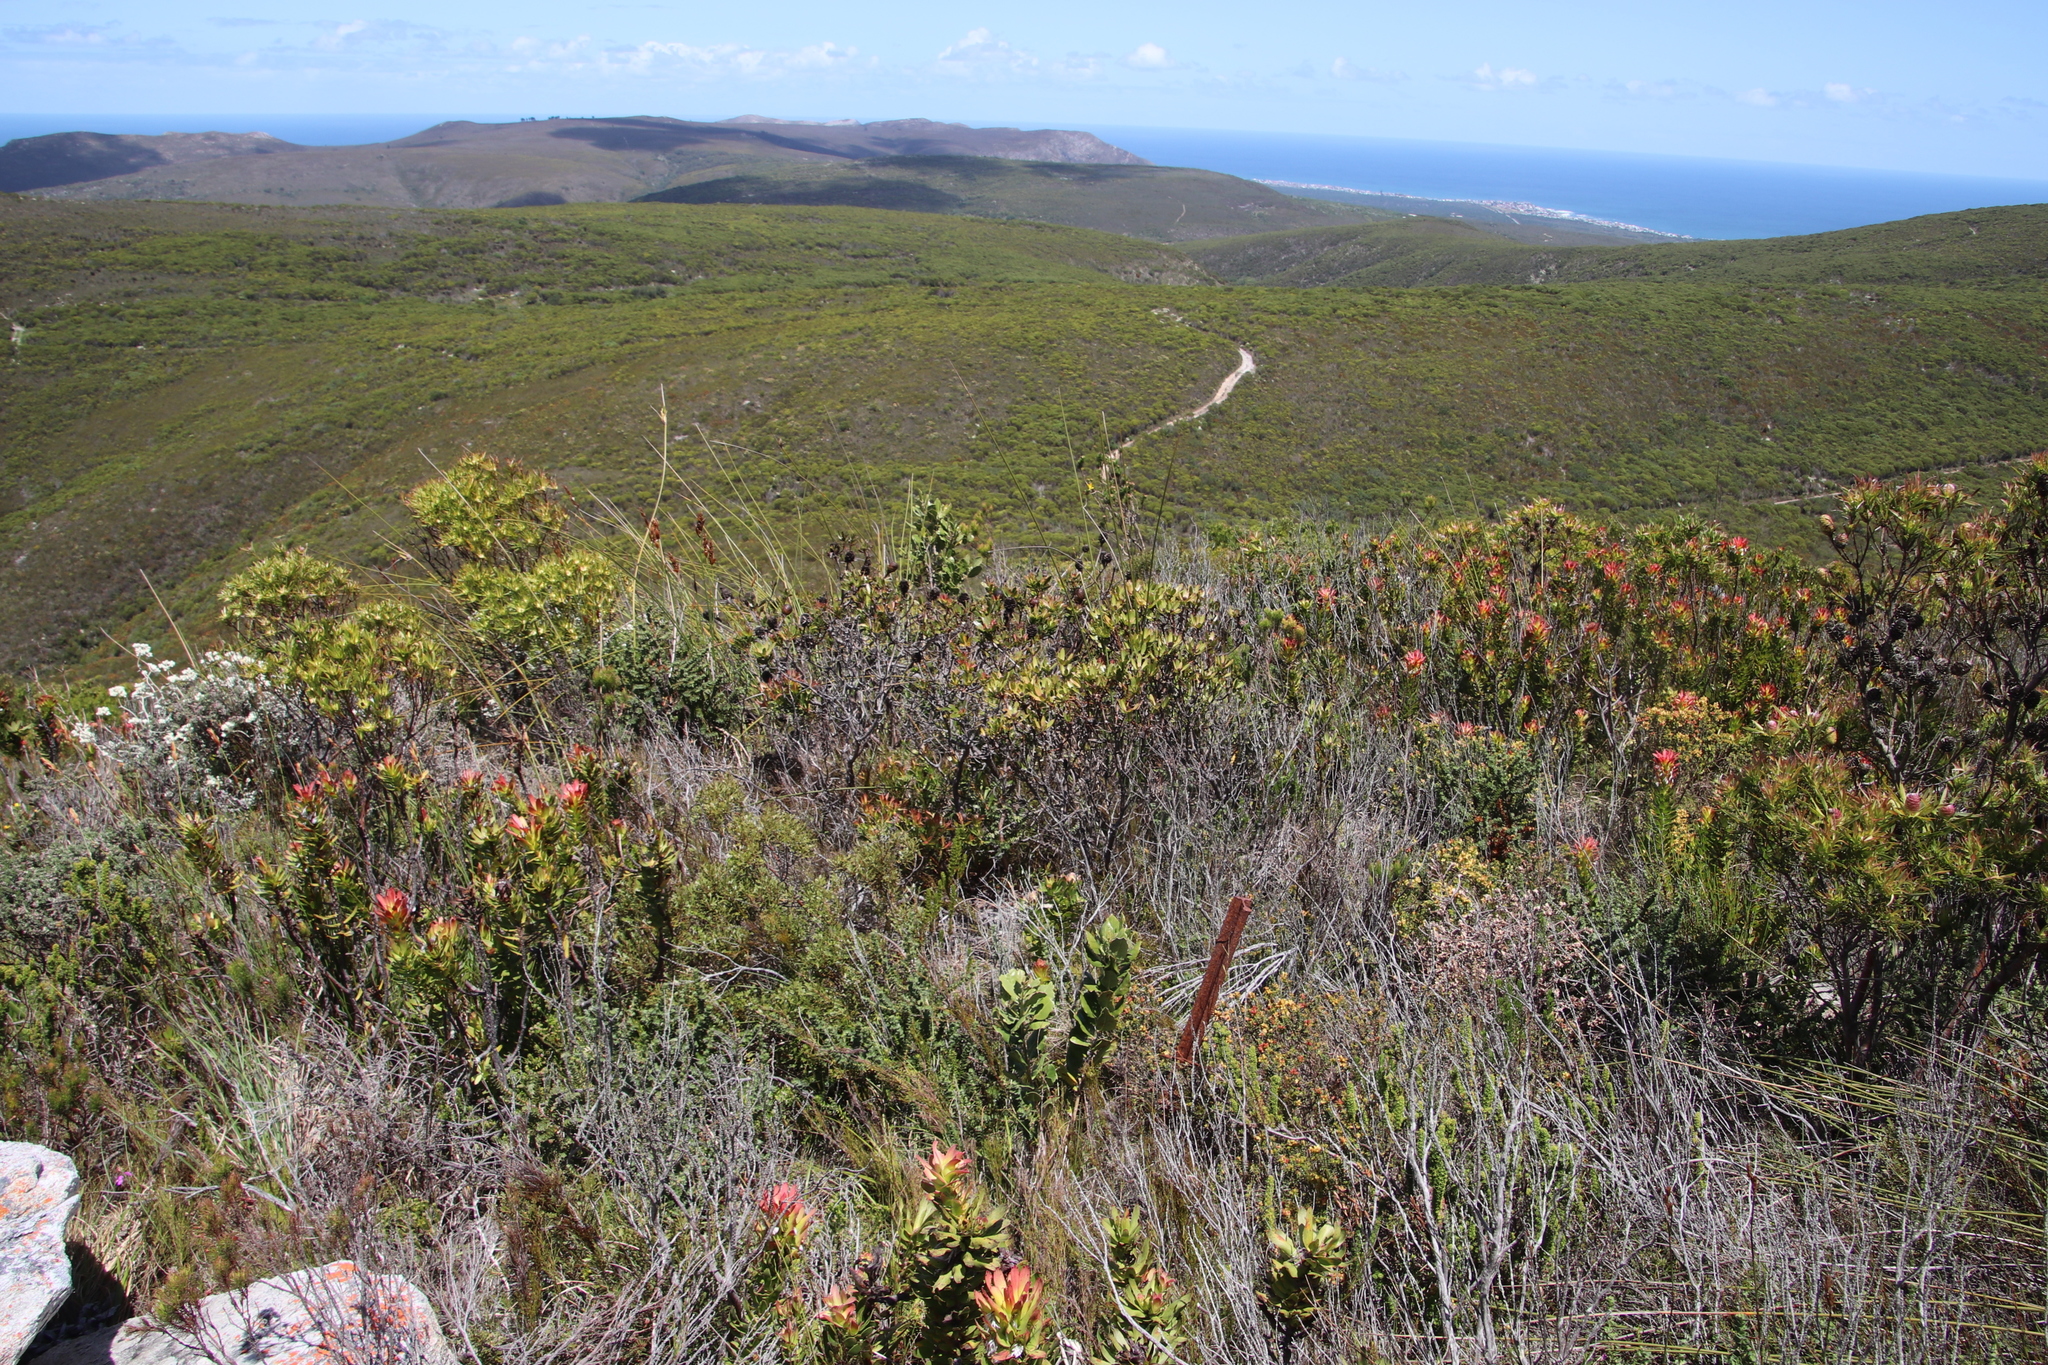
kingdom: Plantae
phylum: Tracheophyta
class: Magnoliopsida
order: Proteales
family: Proteaceae
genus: Leucadendron
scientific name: Leucadendron xanthoconus
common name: Sickle-leaf conebush
